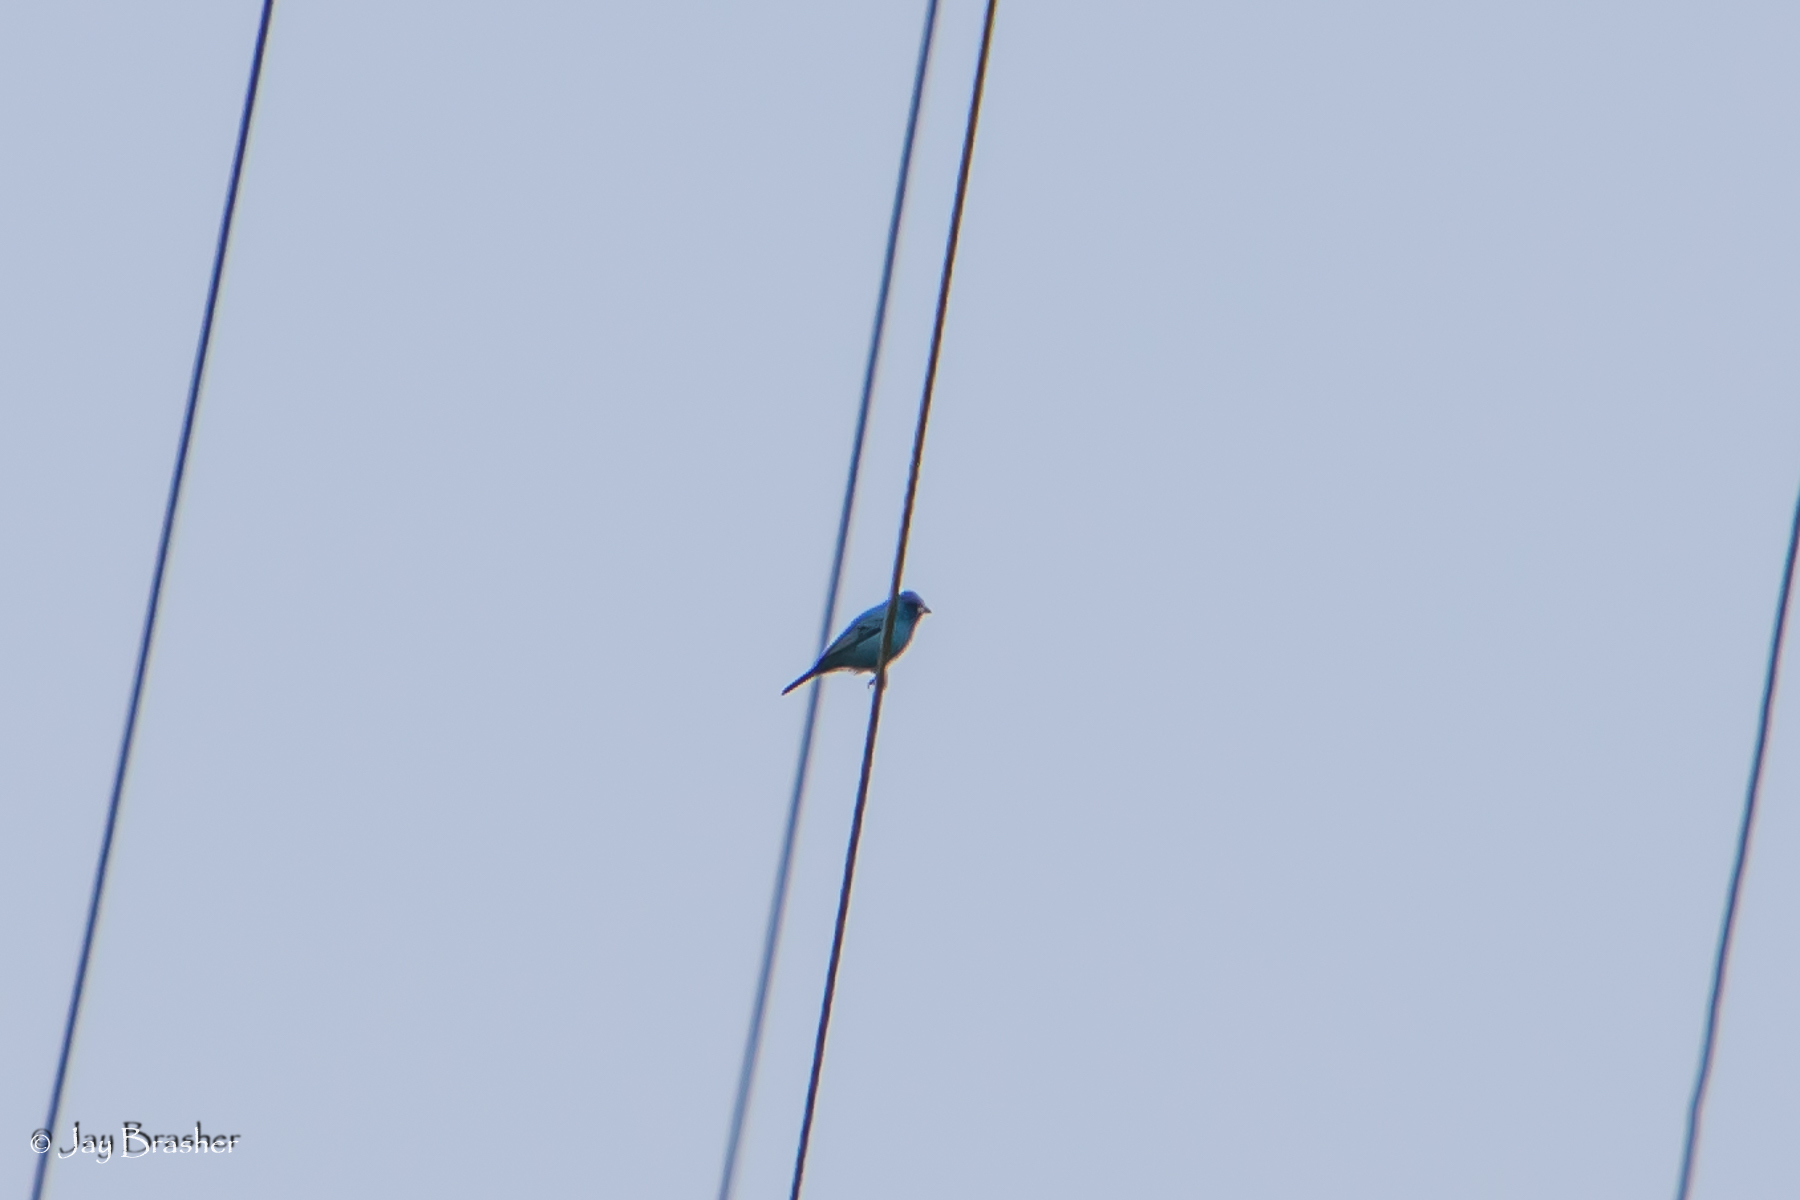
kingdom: Animalia
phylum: Chordata
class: Aves
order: Passeriformes
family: Cardinalidae
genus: Passerina
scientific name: Passerina cyanea
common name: Indigo bunting
